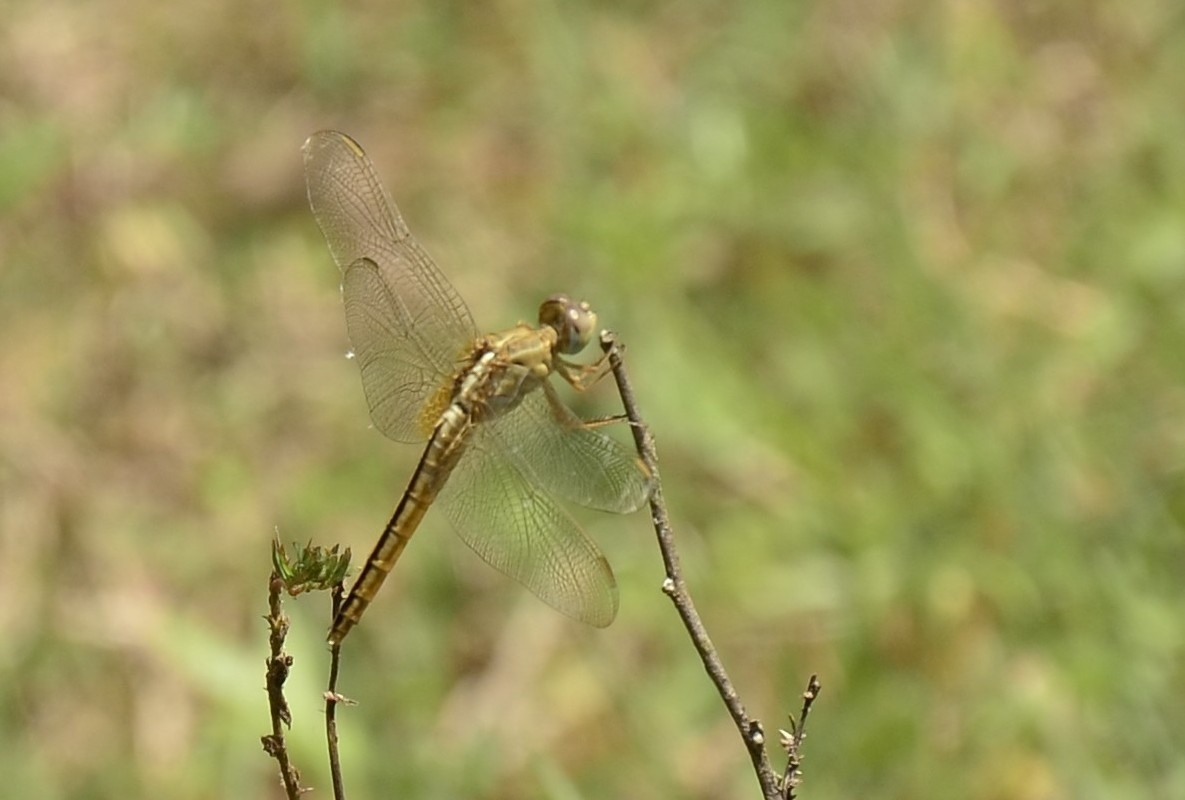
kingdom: Animalia
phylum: Arthropoda
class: Insecta
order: Odonata
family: Libellulidae
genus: Crocothemis
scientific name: Crocothemis servilia
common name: Scarlet skimmer
